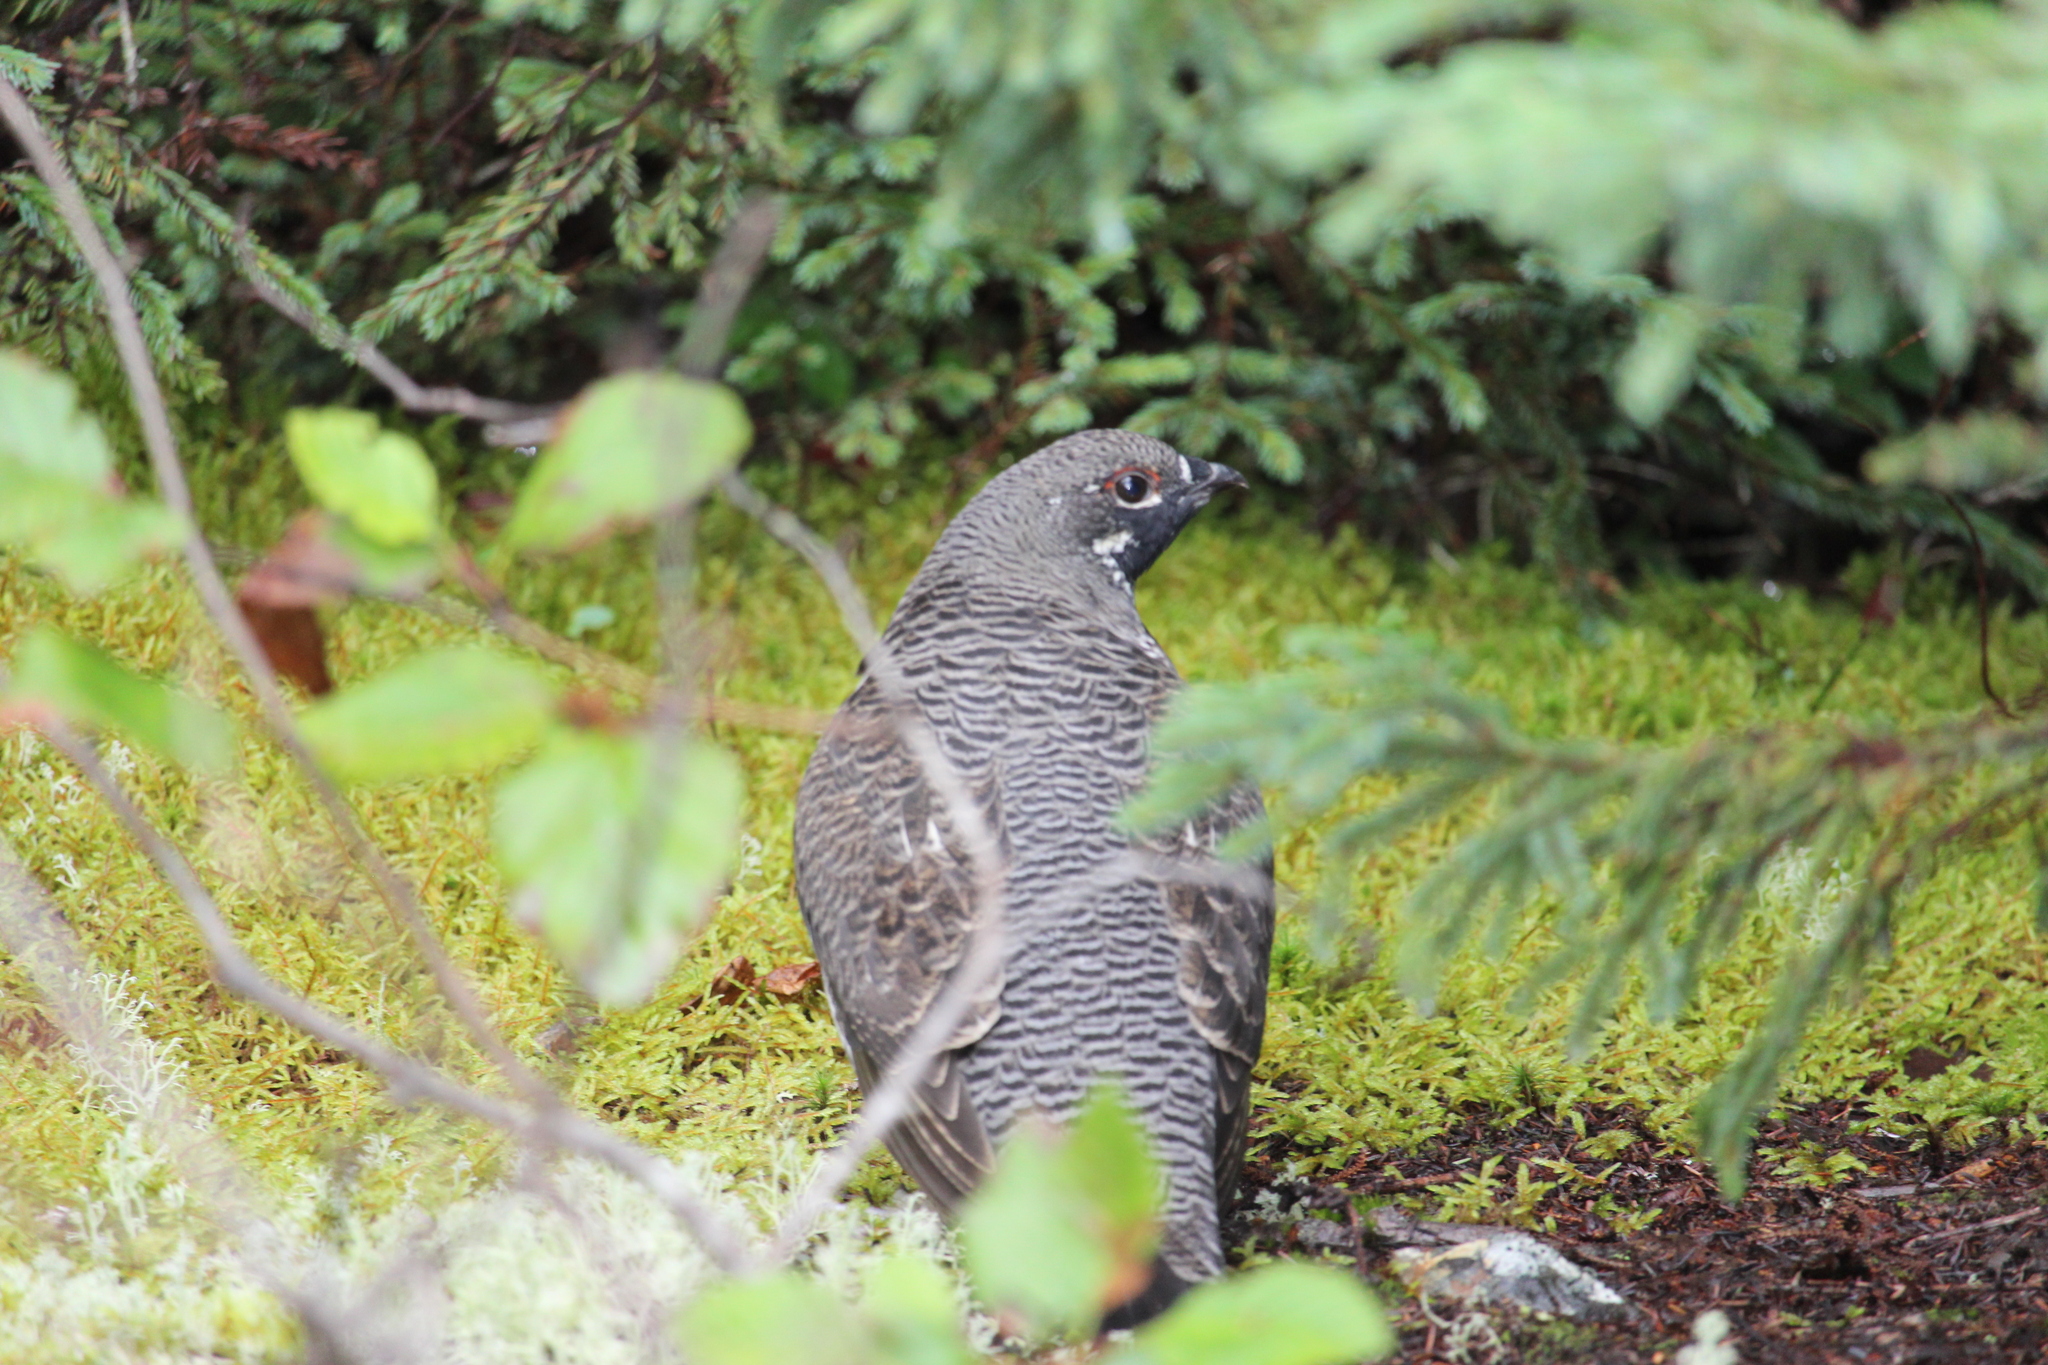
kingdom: Animalia
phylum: Chordata
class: Aves
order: Galliformes
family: Phasianidae
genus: Canachites
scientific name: Canachites canadensis
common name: Spruce grouse
